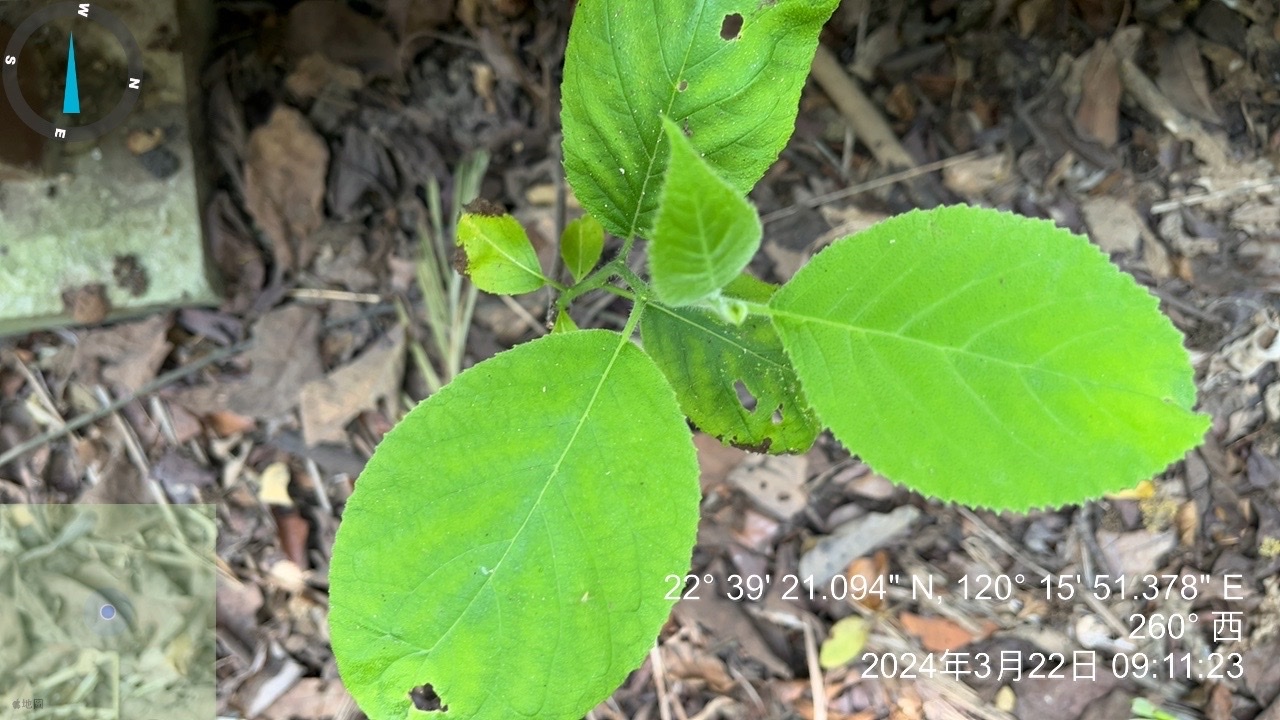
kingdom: Plantae
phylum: Tracheophyta
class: Magnoliopsida
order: Boraginales
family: Ehretiaceae
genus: Ehretia
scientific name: Ehretia dicksonii
